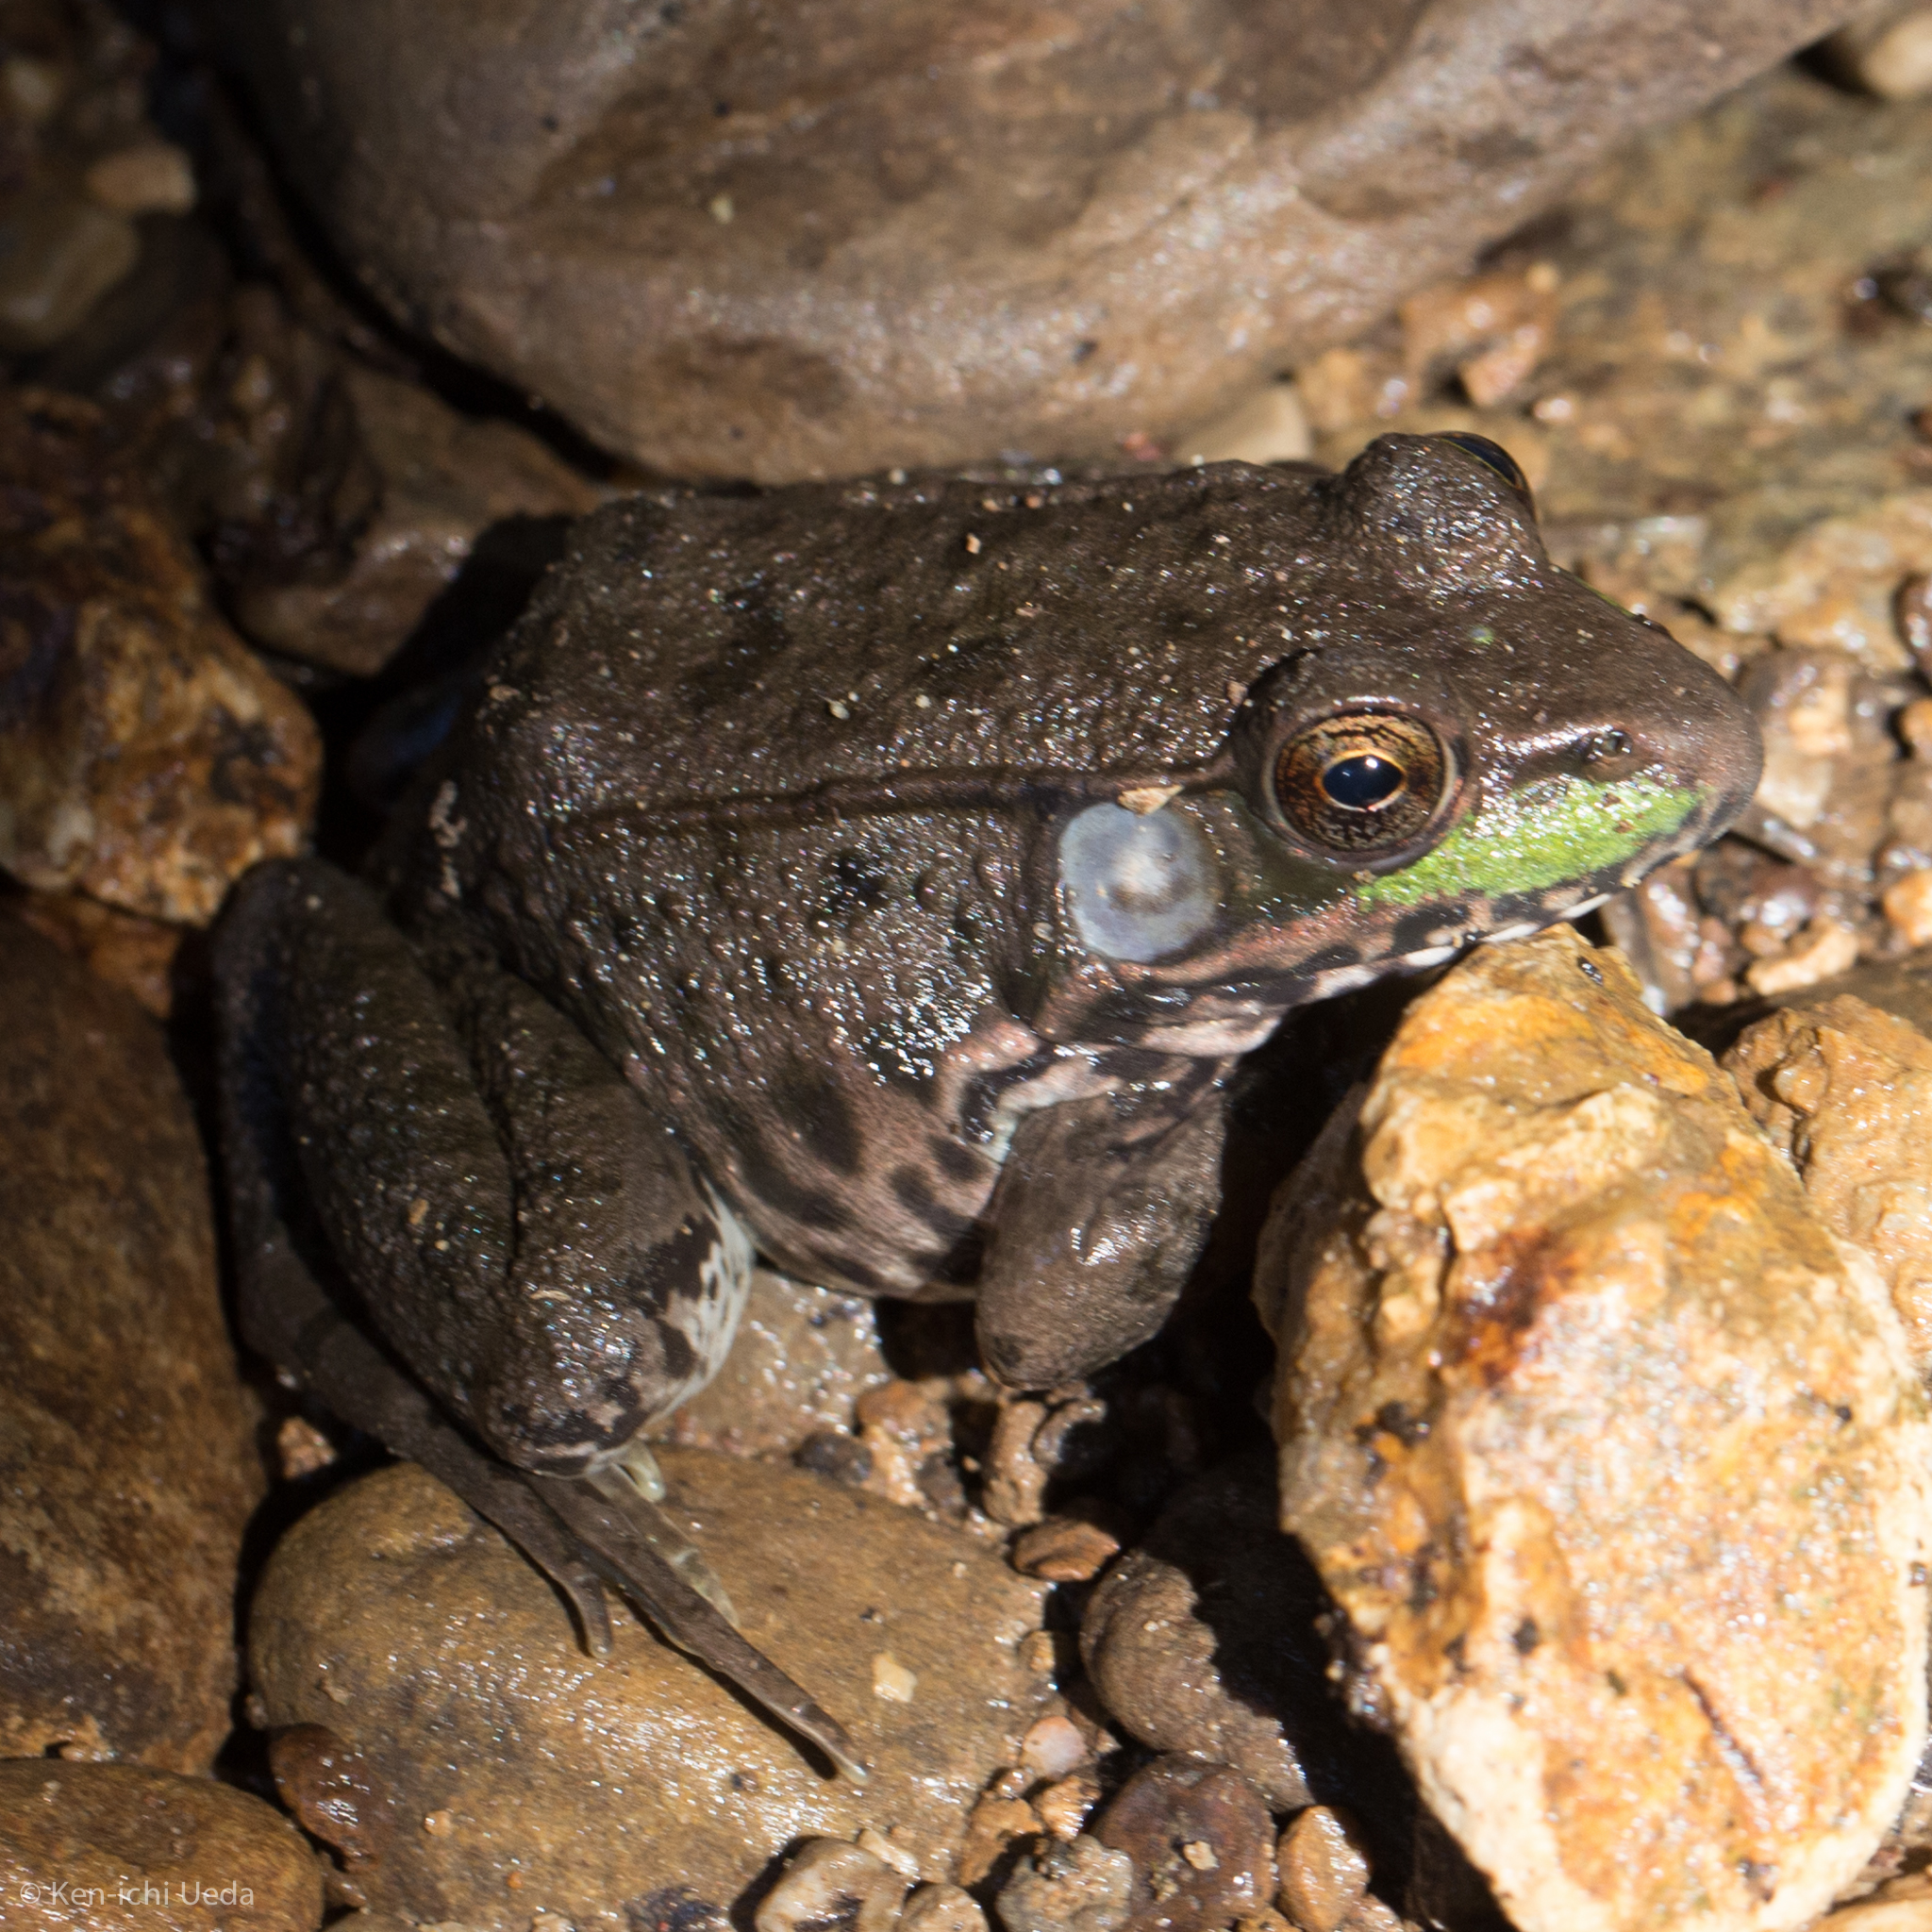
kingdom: Animalia
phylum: Chordata
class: Amphibia
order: Anura
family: Ranidae
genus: Lithobates
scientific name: Lithobates clamitans
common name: Green frog
